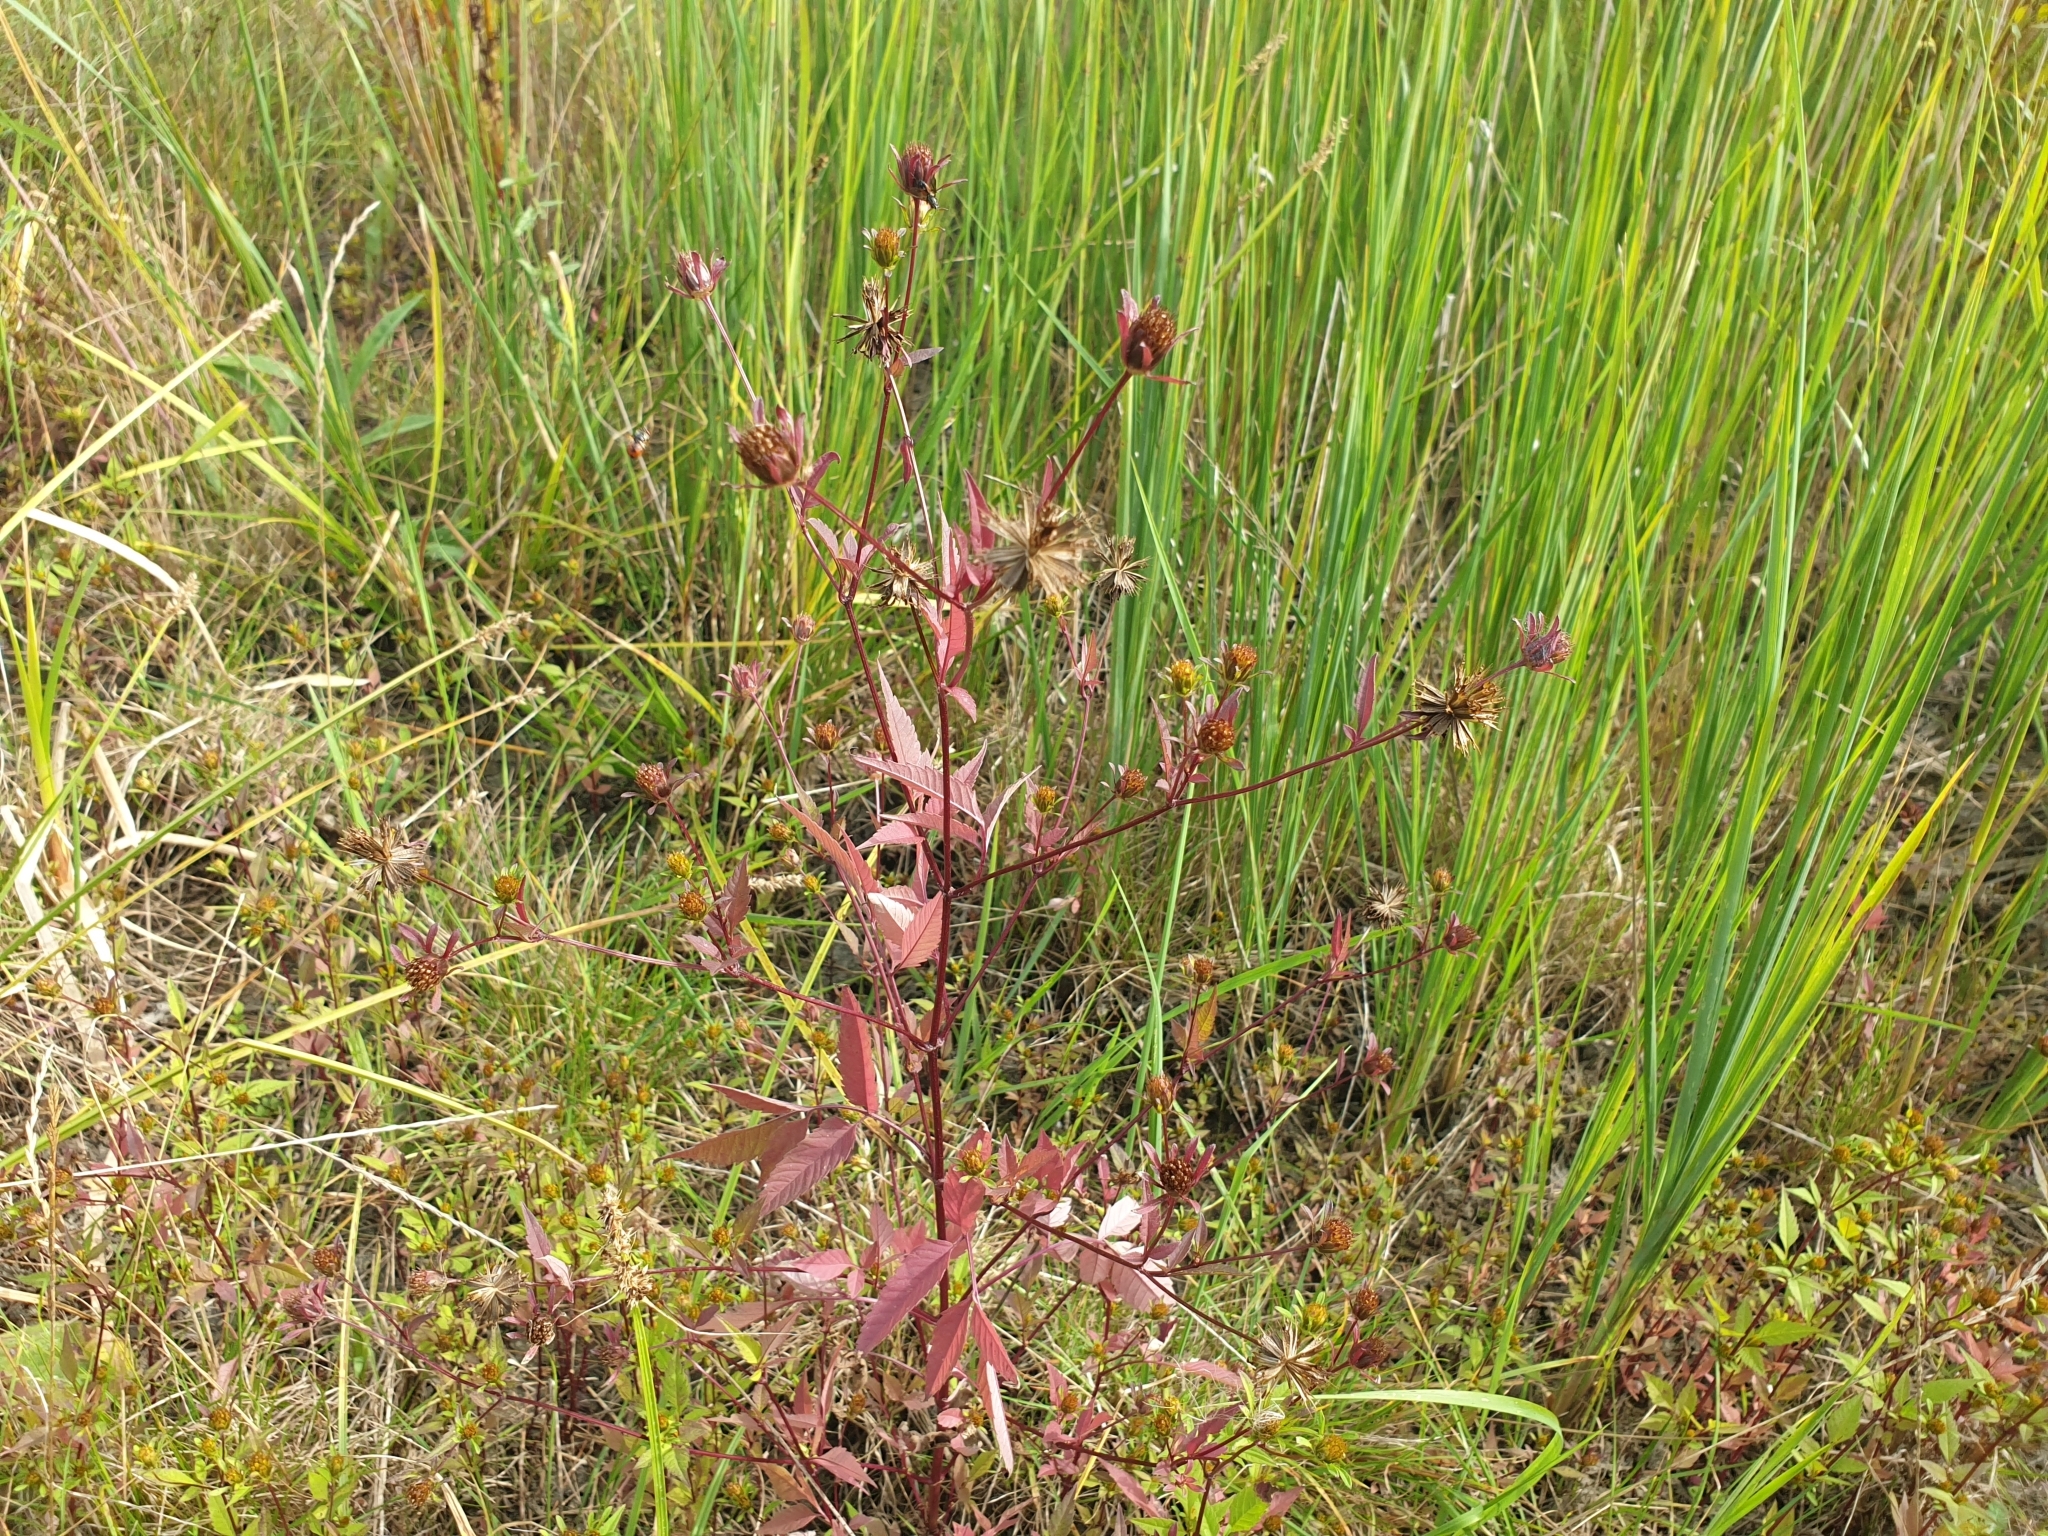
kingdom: Plantae
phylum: Tracheophyta
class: Magnoliopsida
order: Asterales
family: Asteraceae
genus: Bidens
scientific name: Bidens frondosa
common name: Beggarticks
